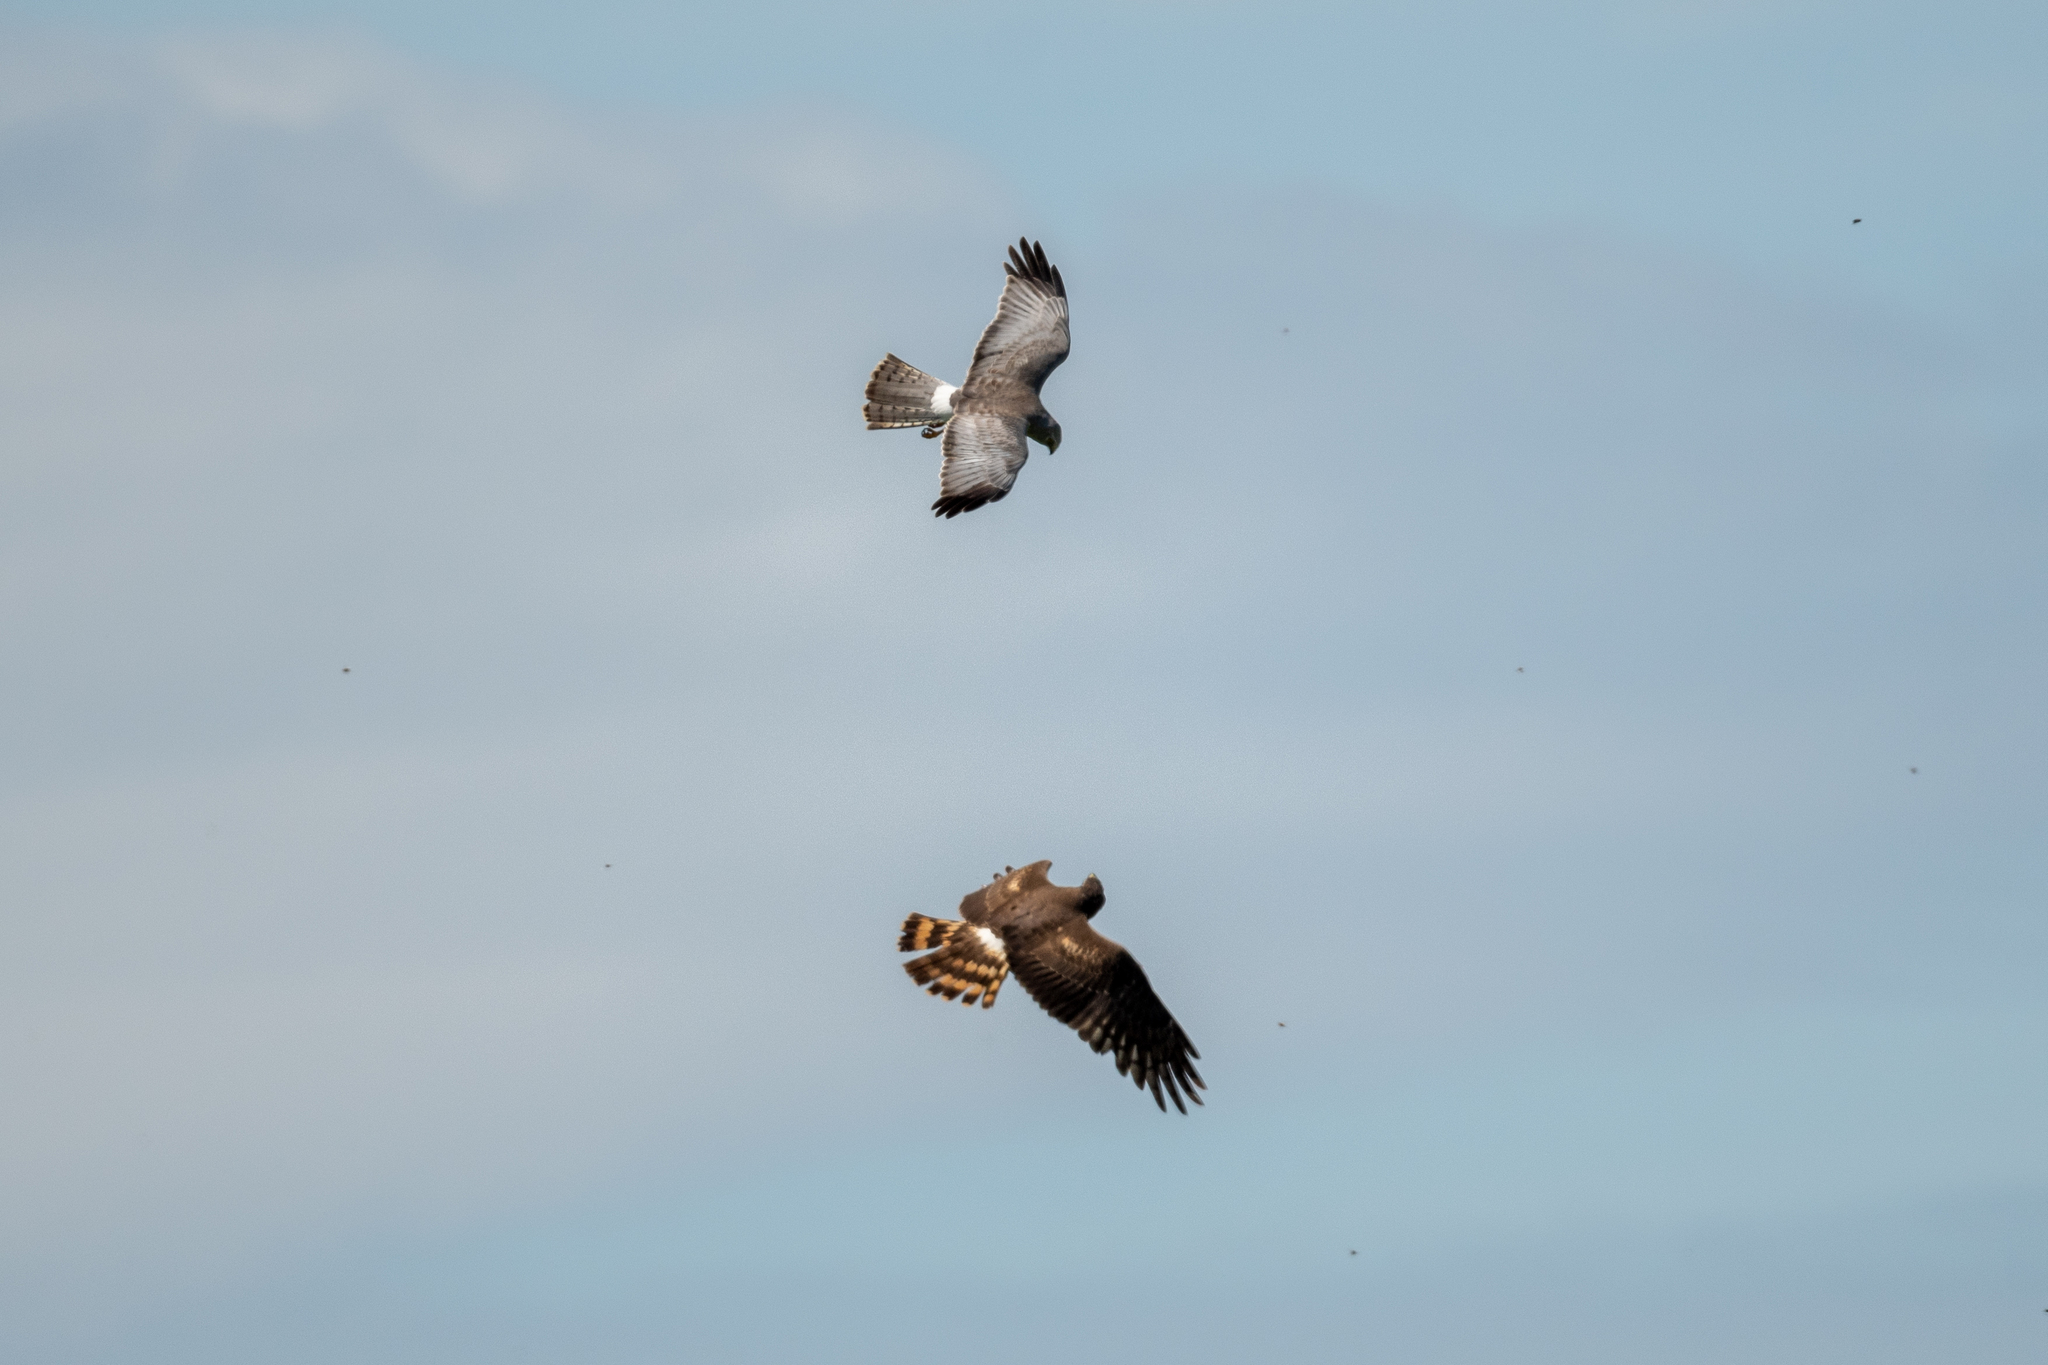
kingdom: Animalia
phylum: Chordata
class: Aves
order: Accipitriformes
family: Accipitridae
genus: Circus
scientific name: Circus cyaneus
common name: Hen harrier
